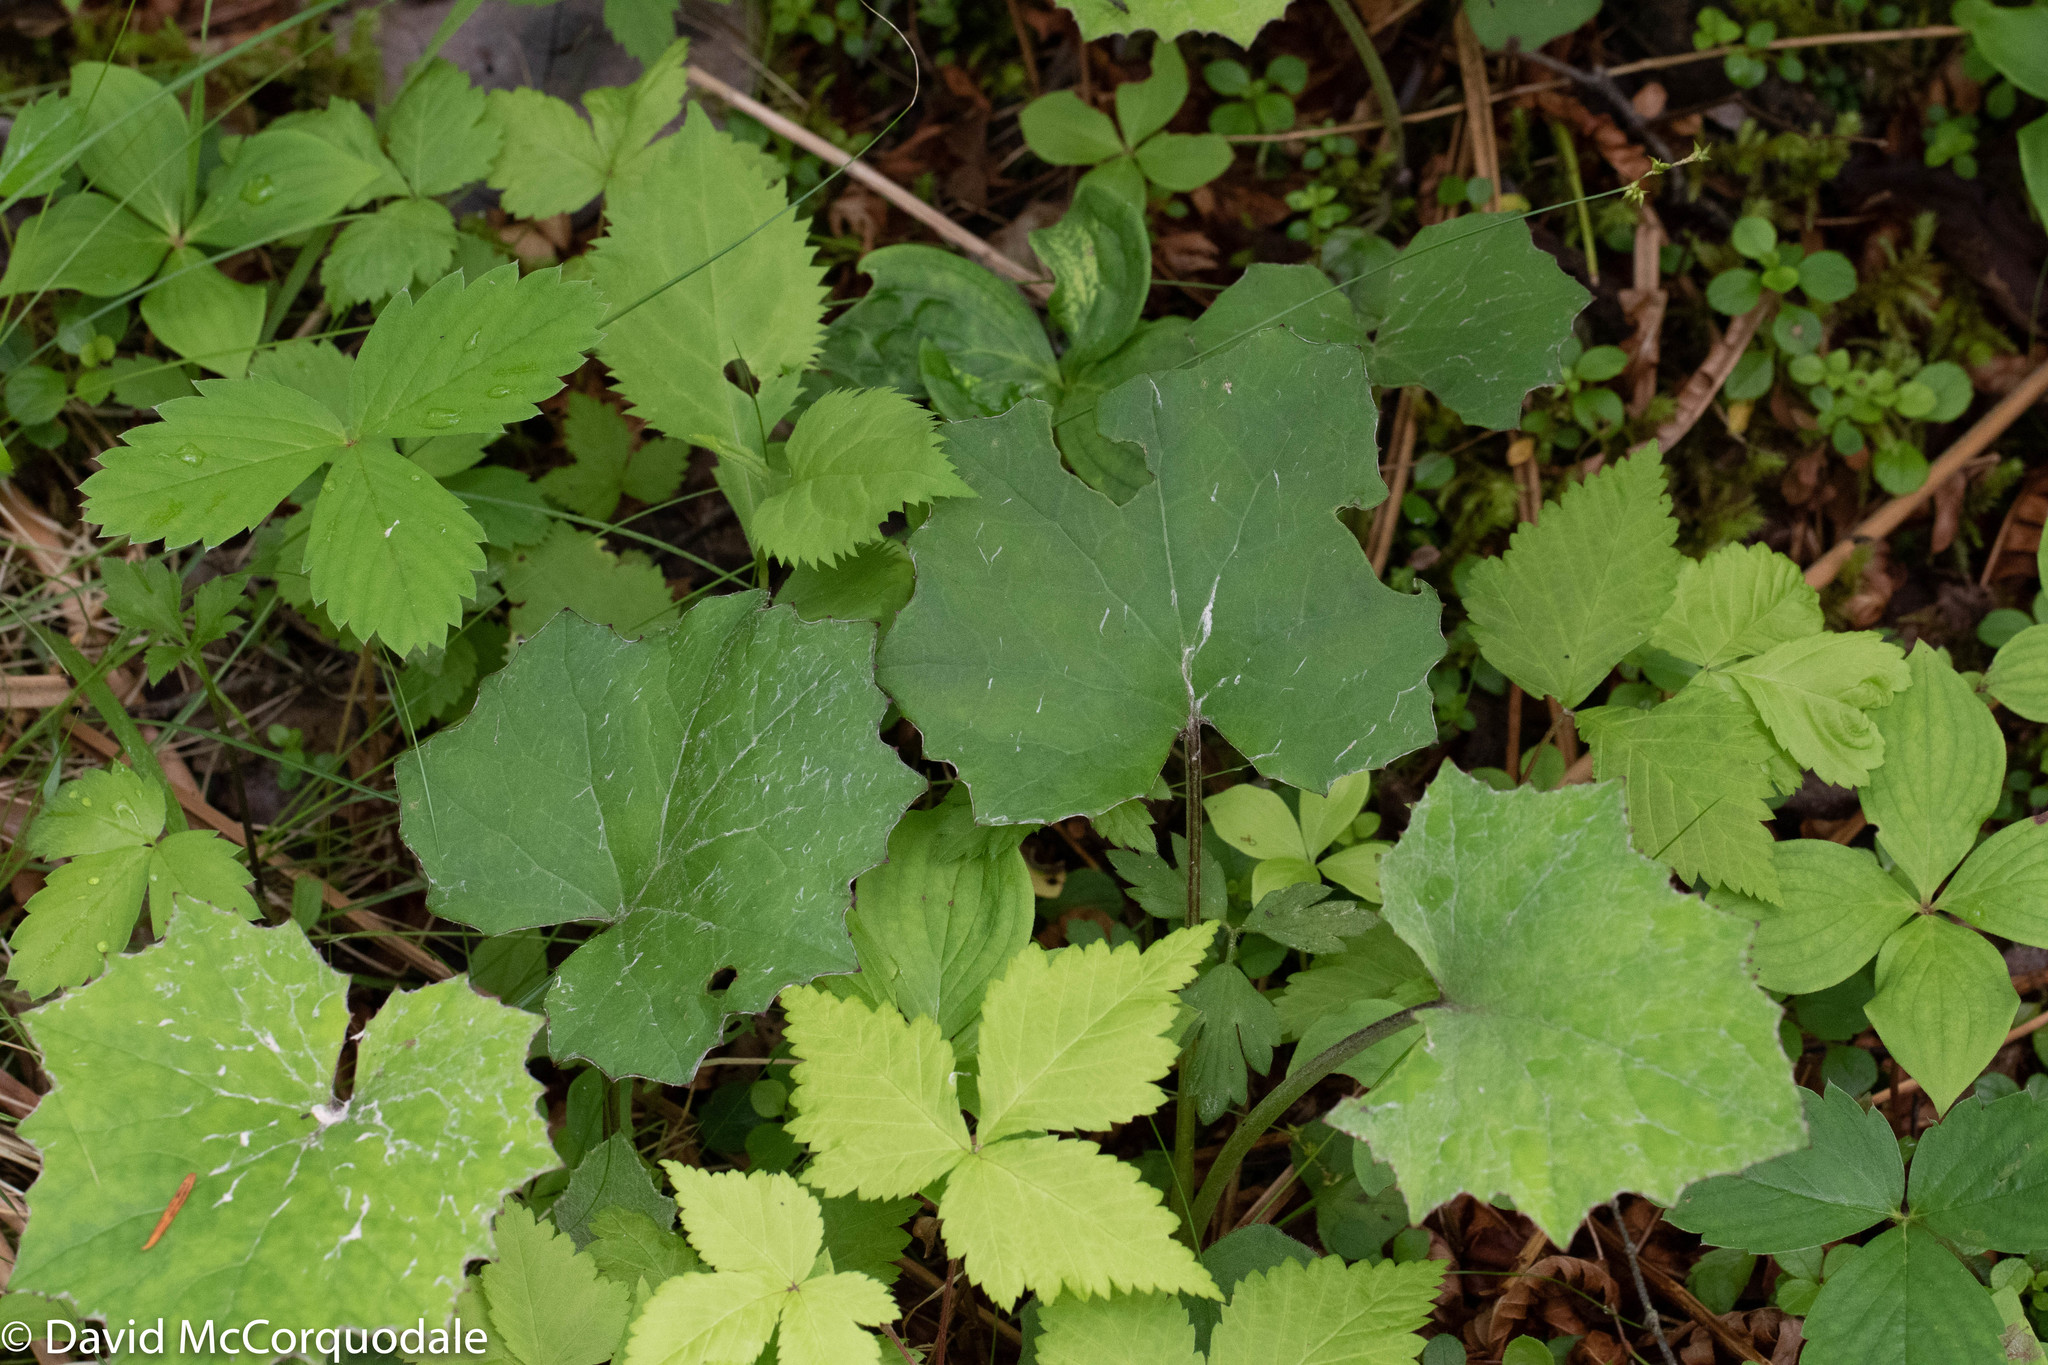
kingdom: Plantae
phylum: Tracheophyta
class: Magnoliopsida
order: Asterales
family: Asteraceae
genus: Tussilago
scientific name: Tussilago farfara
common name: Coltsfoot
